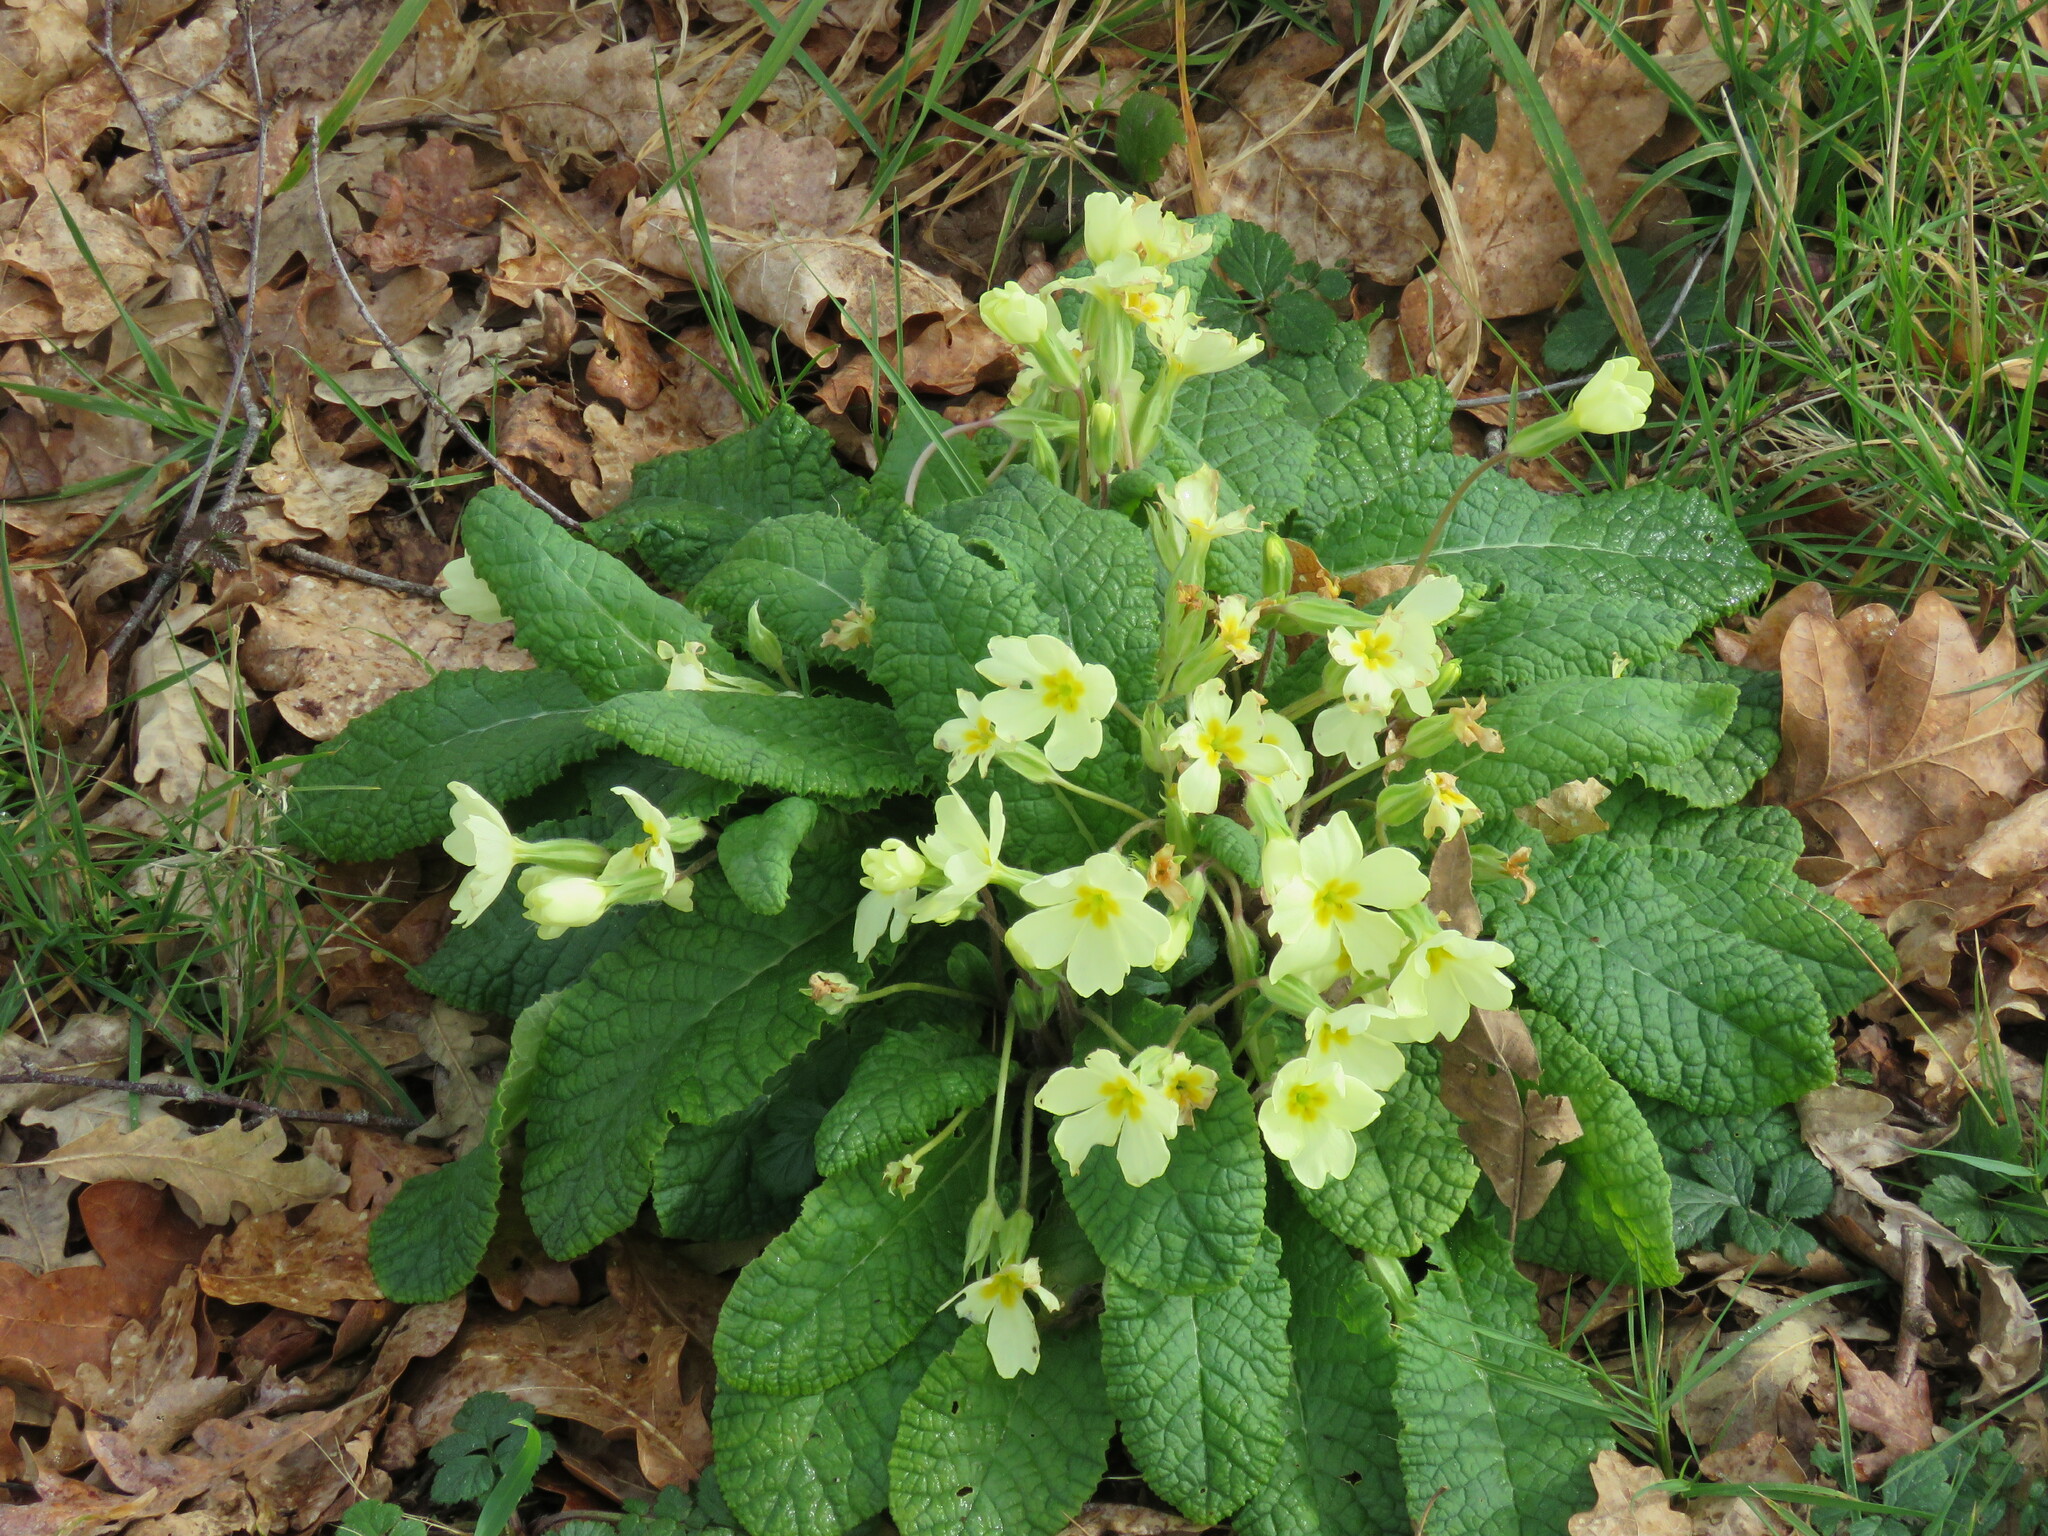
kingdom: Plantae
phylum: Tracheophyta
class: Magnoliopsida
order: Ericales
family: Primulaceae
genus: Primula
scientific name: Primula vulgaris
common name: Primrose
